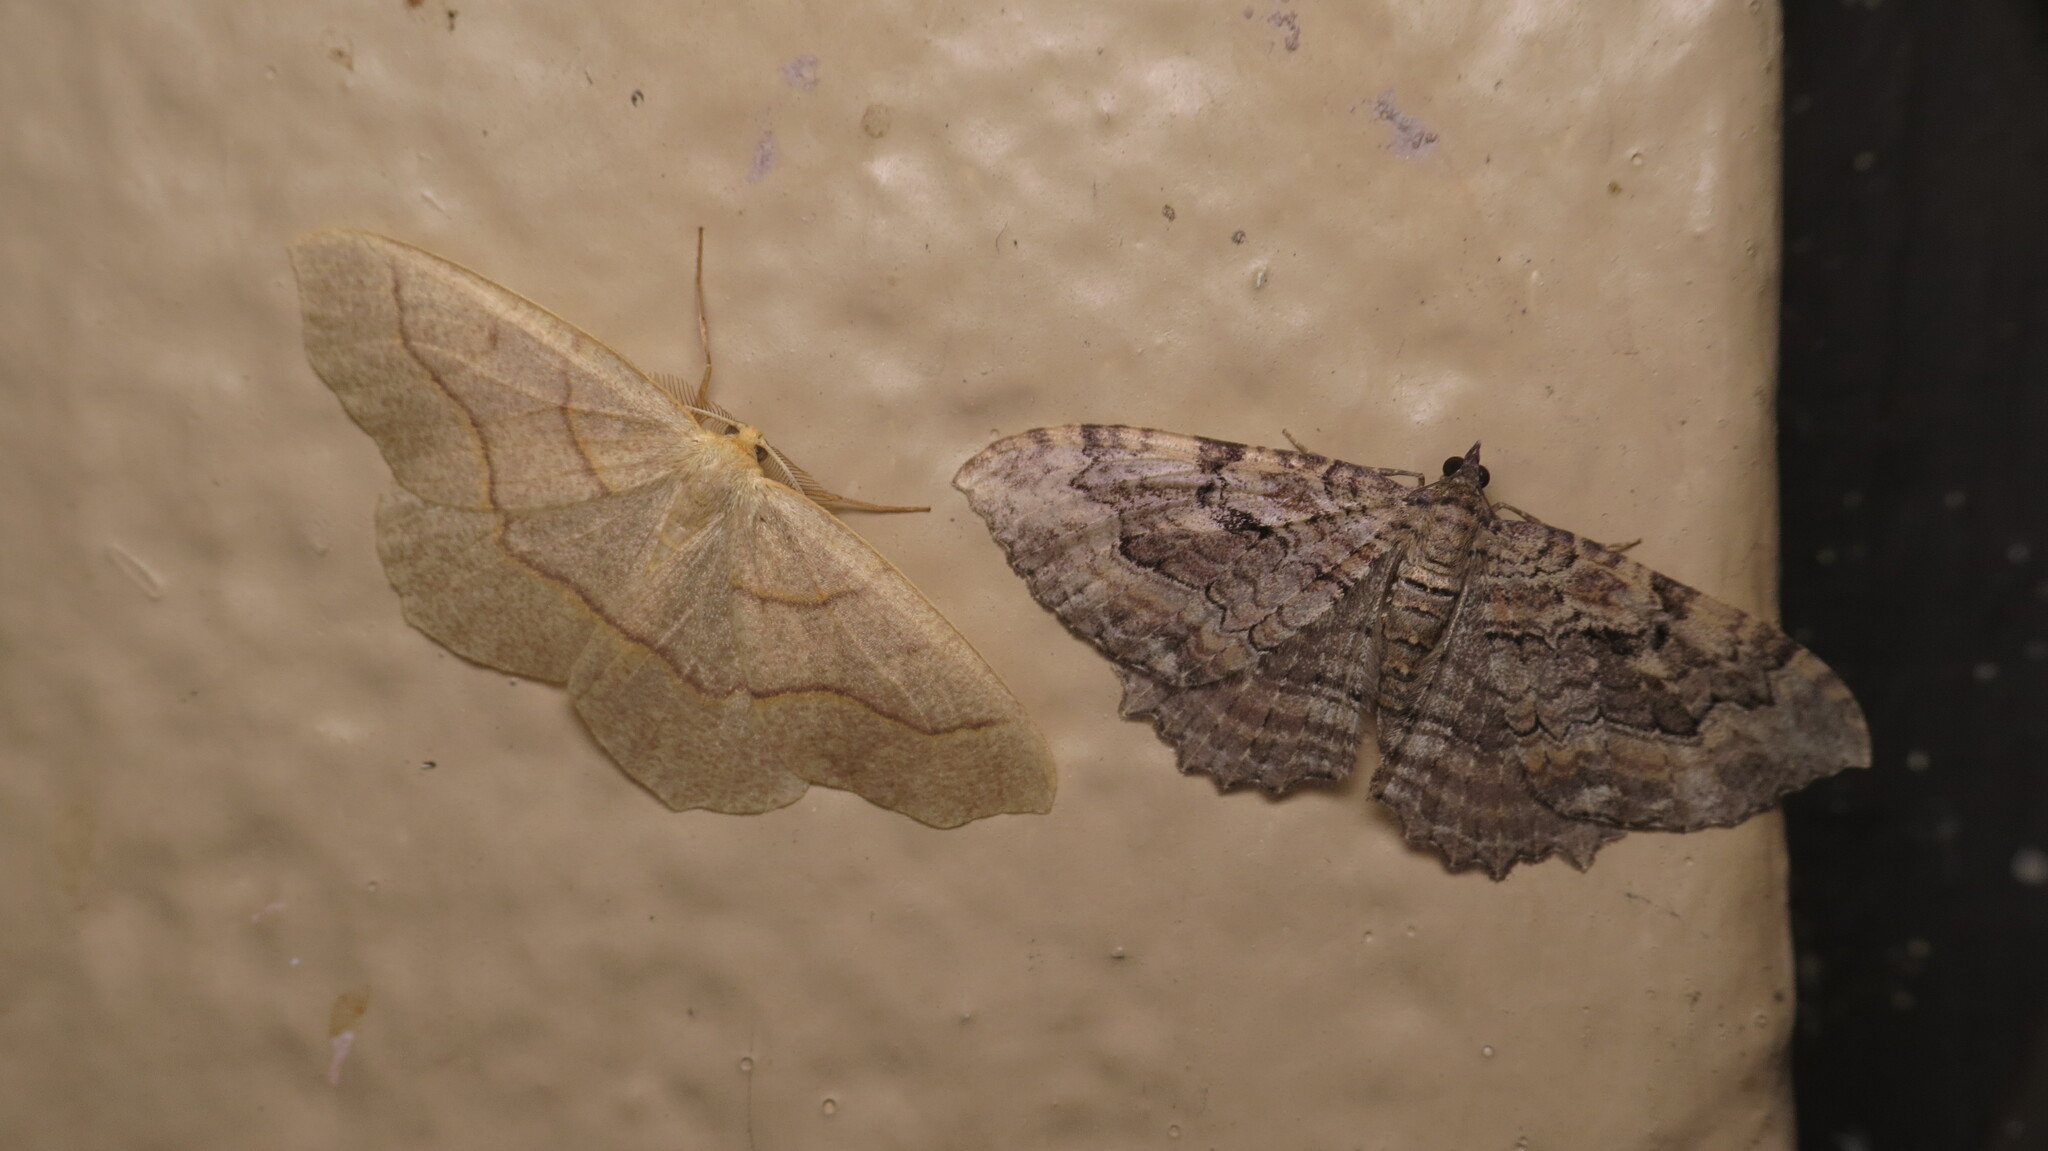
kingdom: Animalia
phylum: Arthropoda
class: Insecta
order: Lepidoptera
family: Geometridae
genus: Lambdina
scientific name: Lambdina fiscellaria
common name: Hemlock looper
